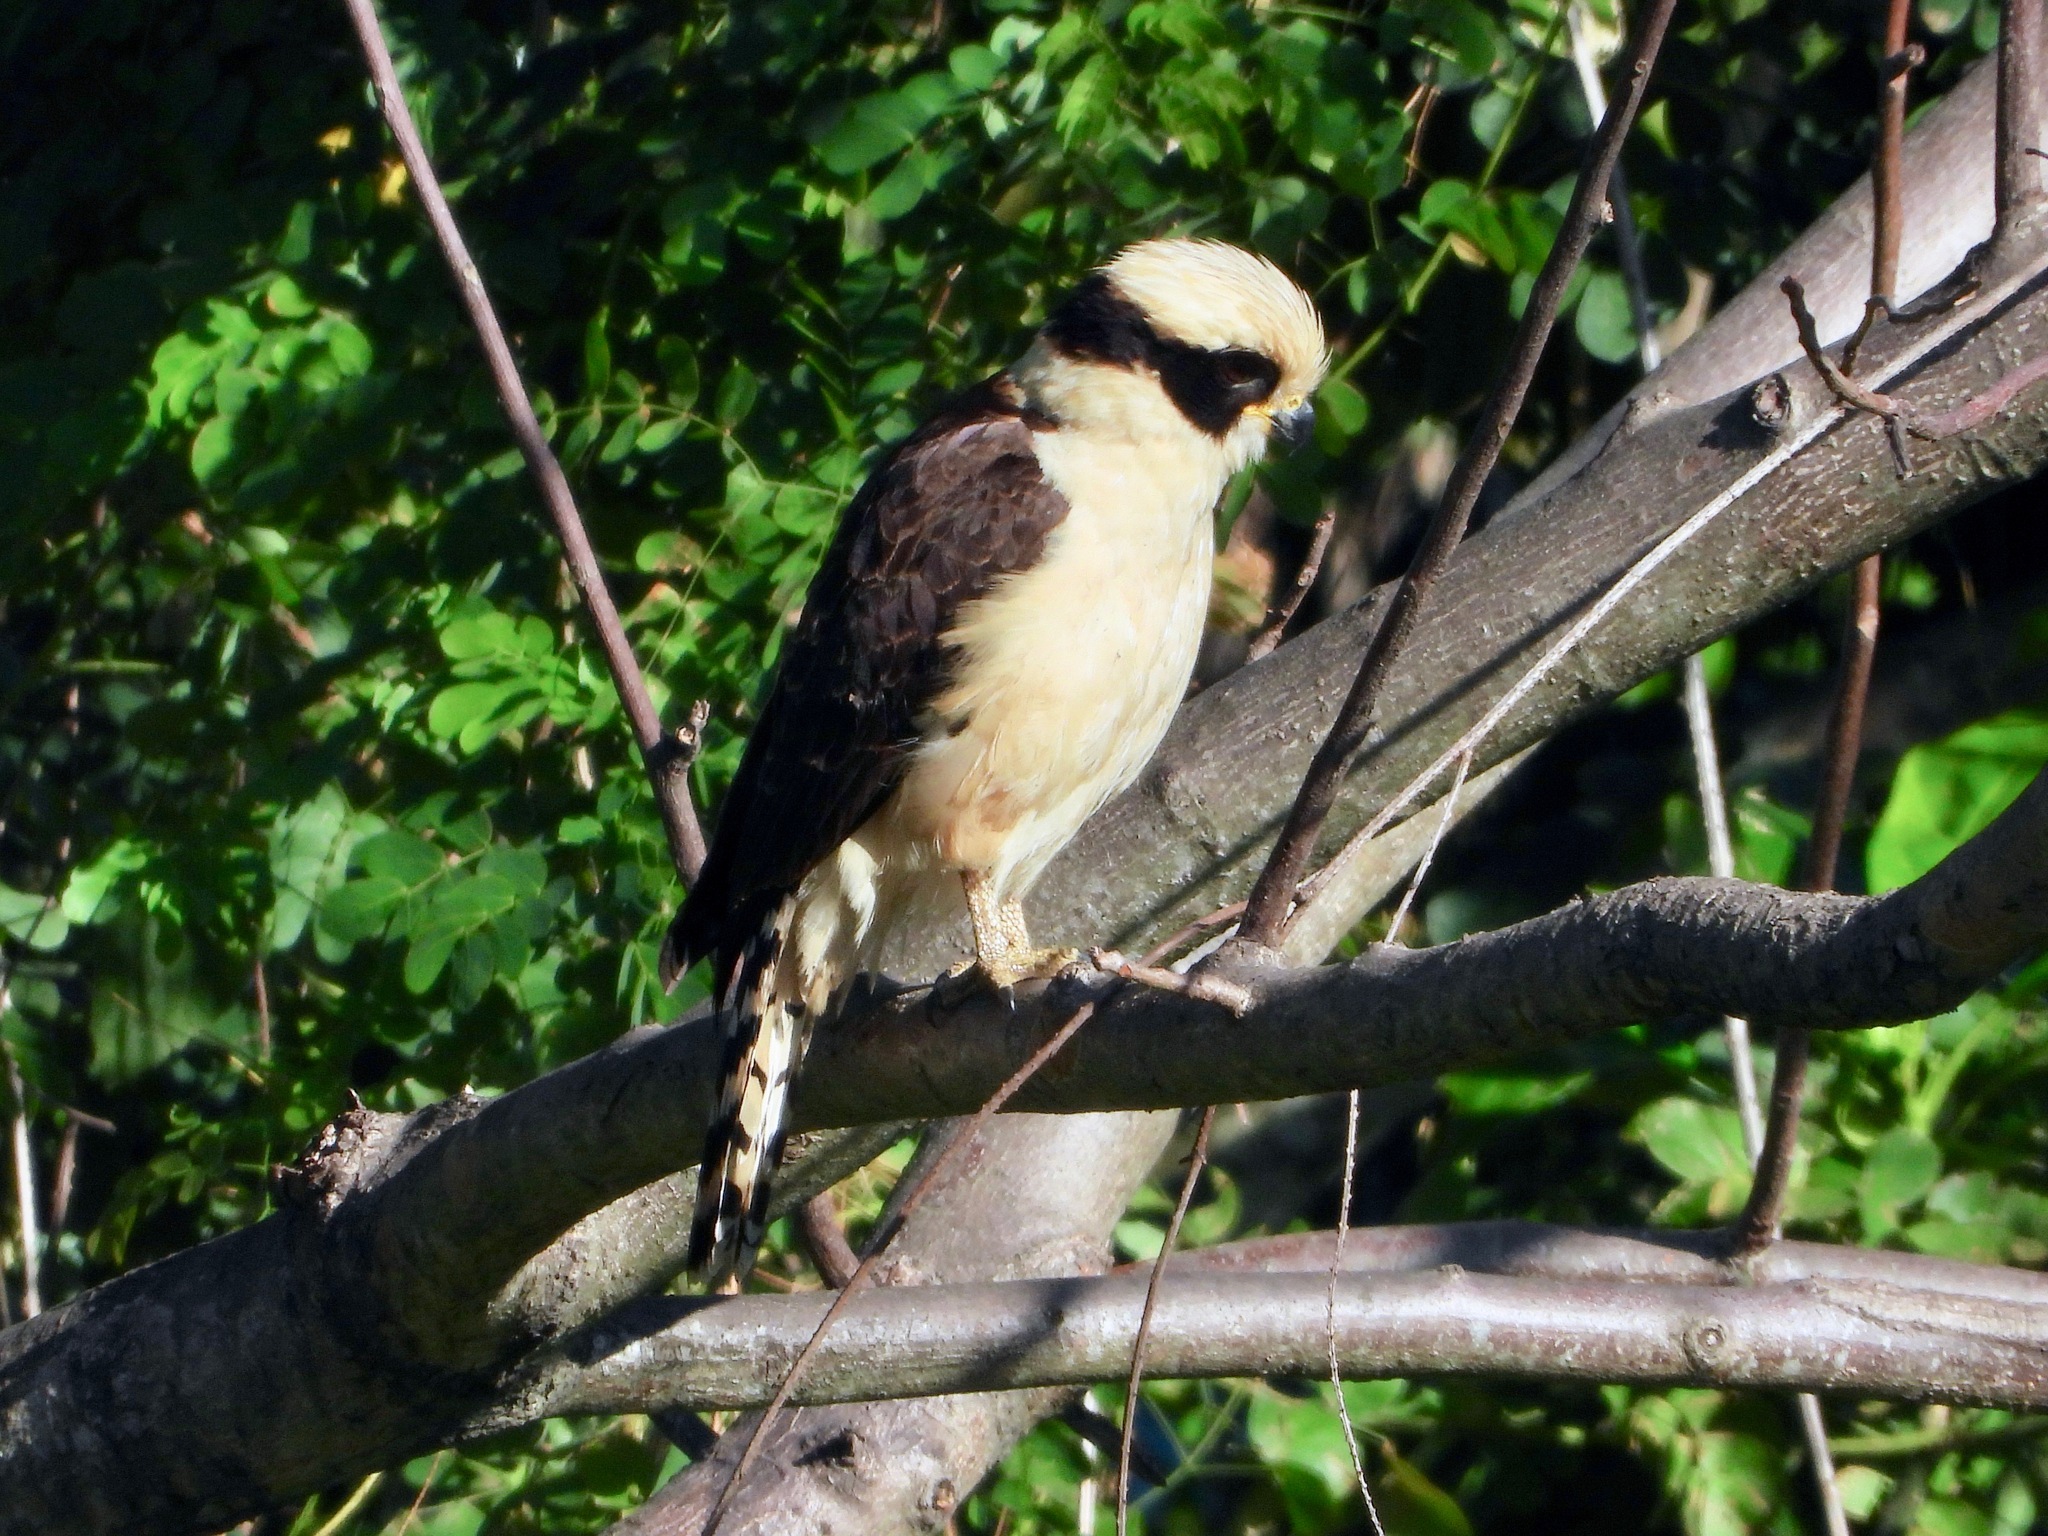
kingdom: Animalia
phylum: Chordata
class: Aves
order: Falconiformes
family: Falconidae
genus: Herpetotheres
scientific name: Herpetotheres cachinnans
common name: Laughing falcon
